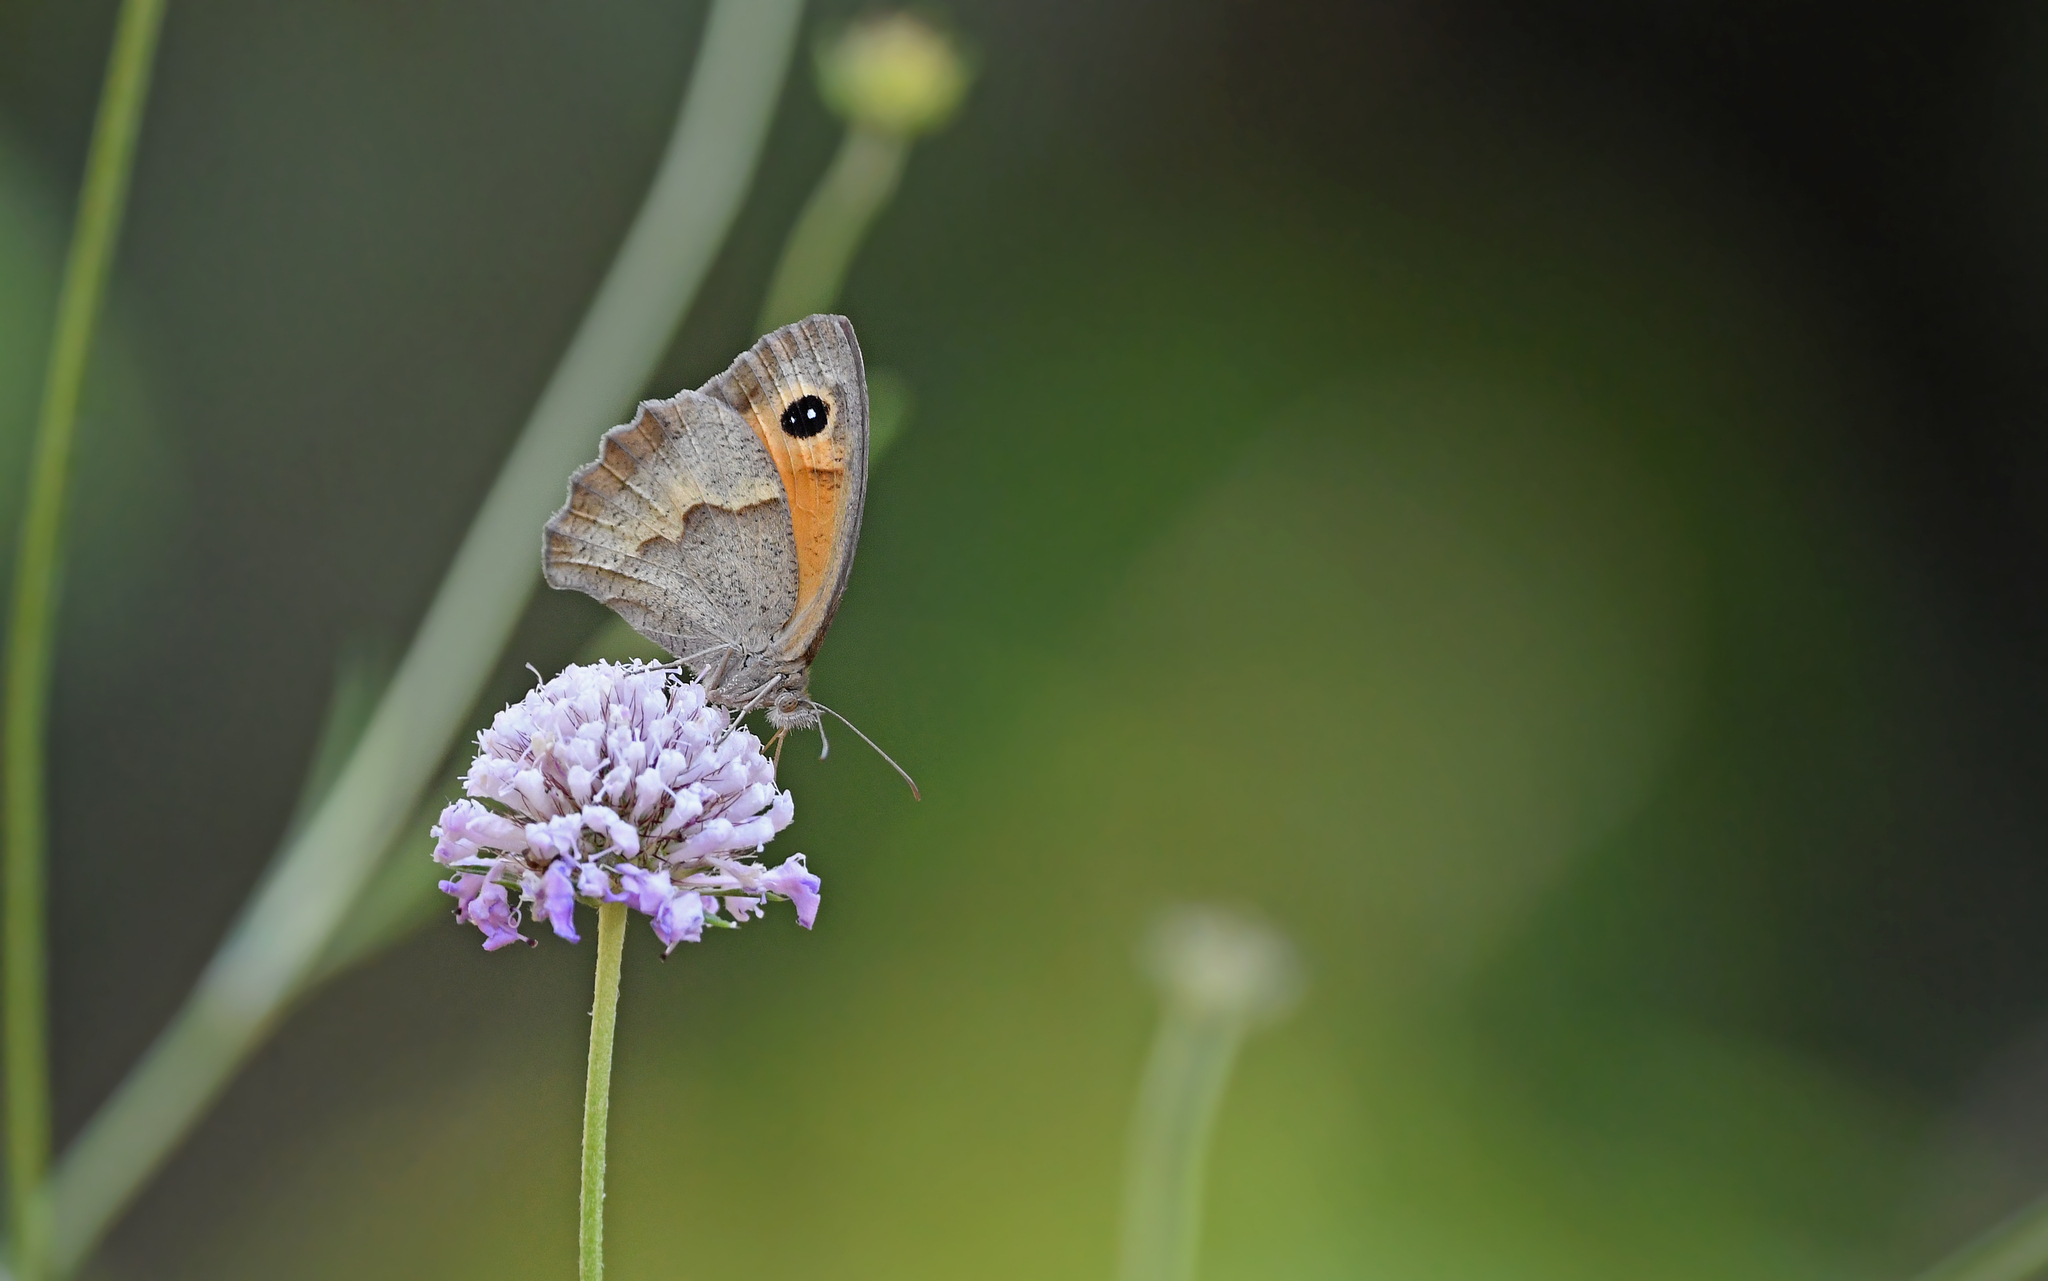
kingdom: Animalia
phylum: Arthropoda
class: Insecta
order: Lepidoptera
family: Nymphalidae
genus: Maniola
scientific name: Maniola jurtina
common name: Meadow brown
